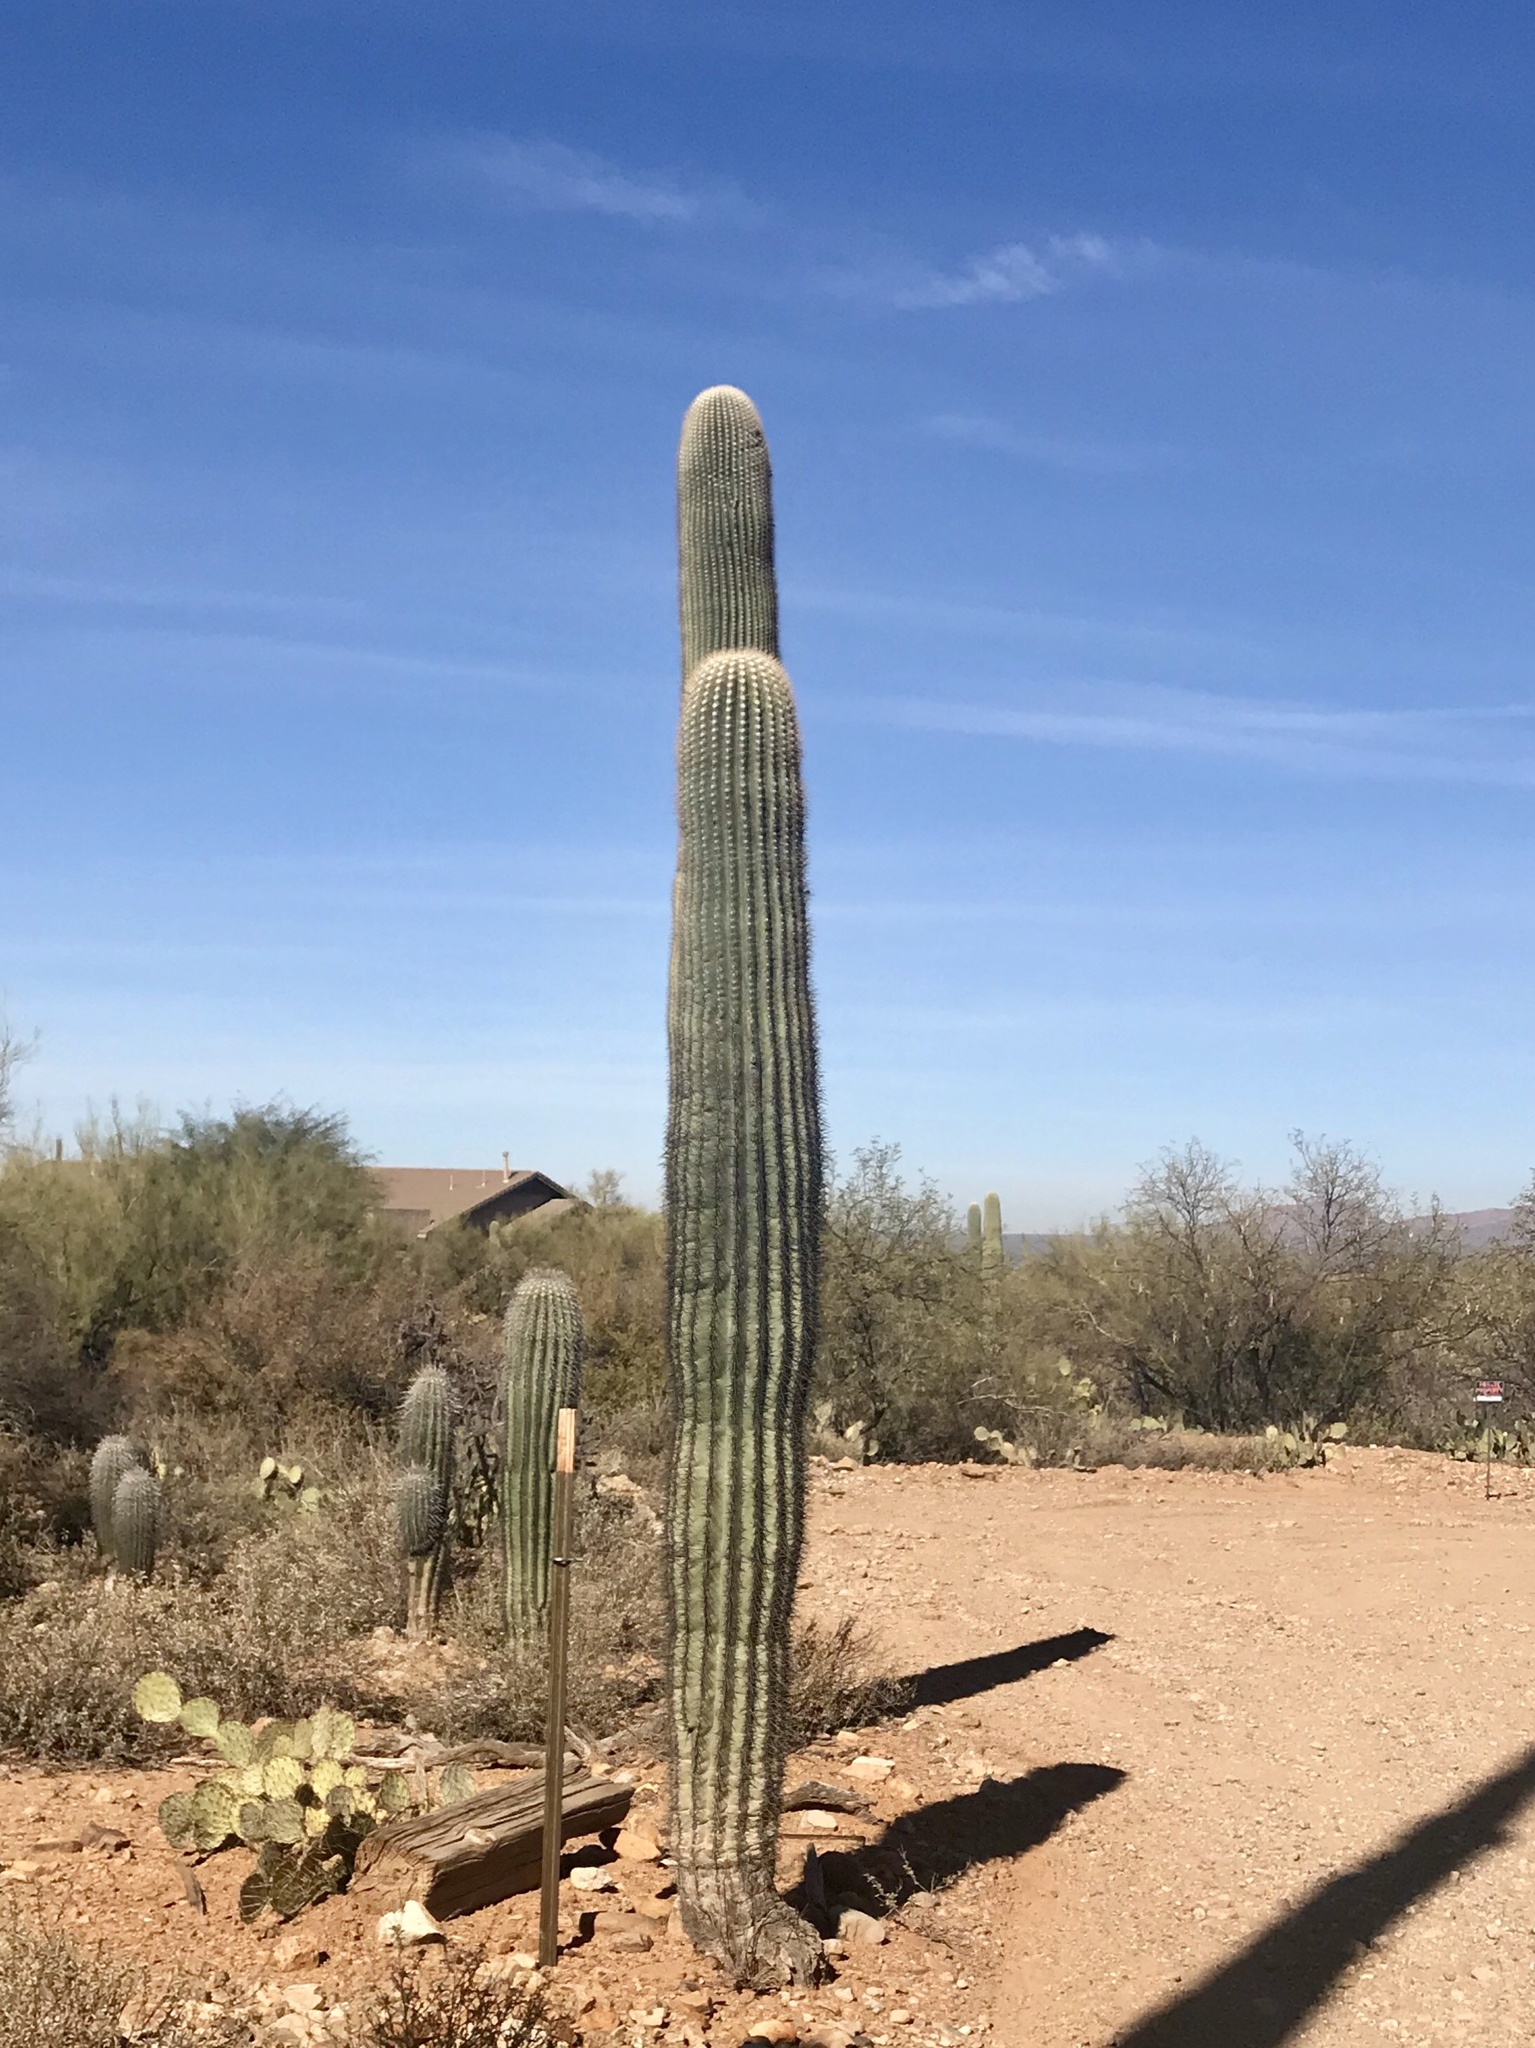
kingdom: Plantae
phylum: Tracheophyta
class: Magnoliopsida
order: Caryophyllales
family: Cactaceae
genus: Carnegiea
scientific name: Carnegiea gigantea
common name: Saguaro
